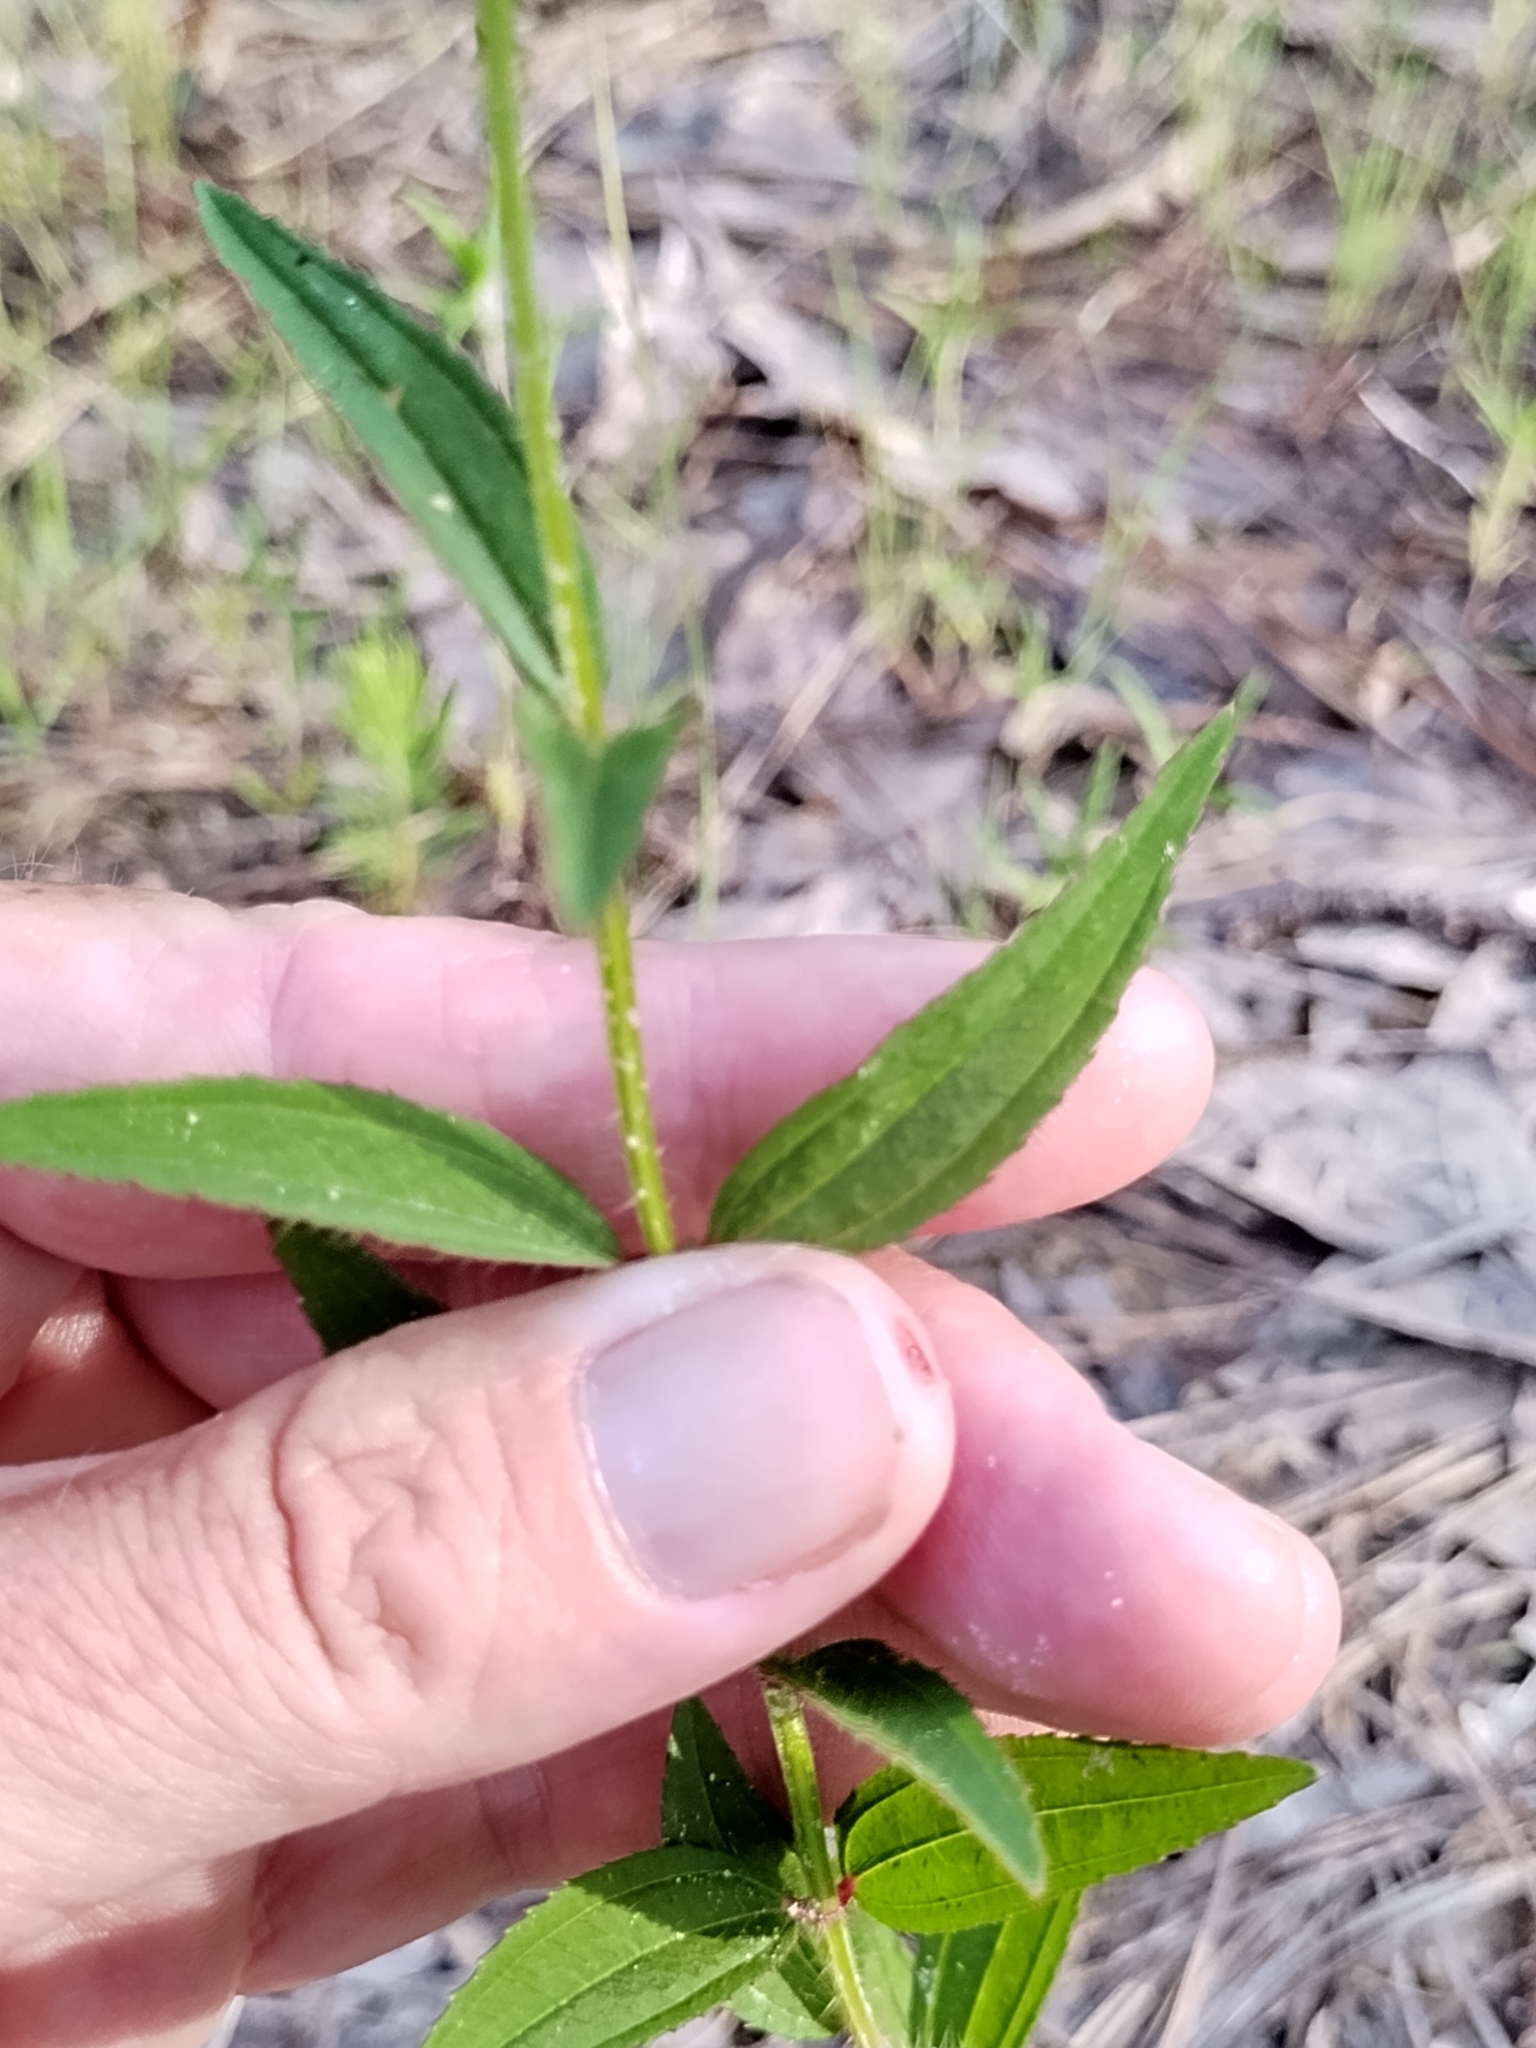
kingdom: Plantae
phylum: Tracheophyta
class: Magnoliopsida
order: Myrtales
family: Melastomataceae
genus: Rhexia
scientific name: Rhexia nashii
